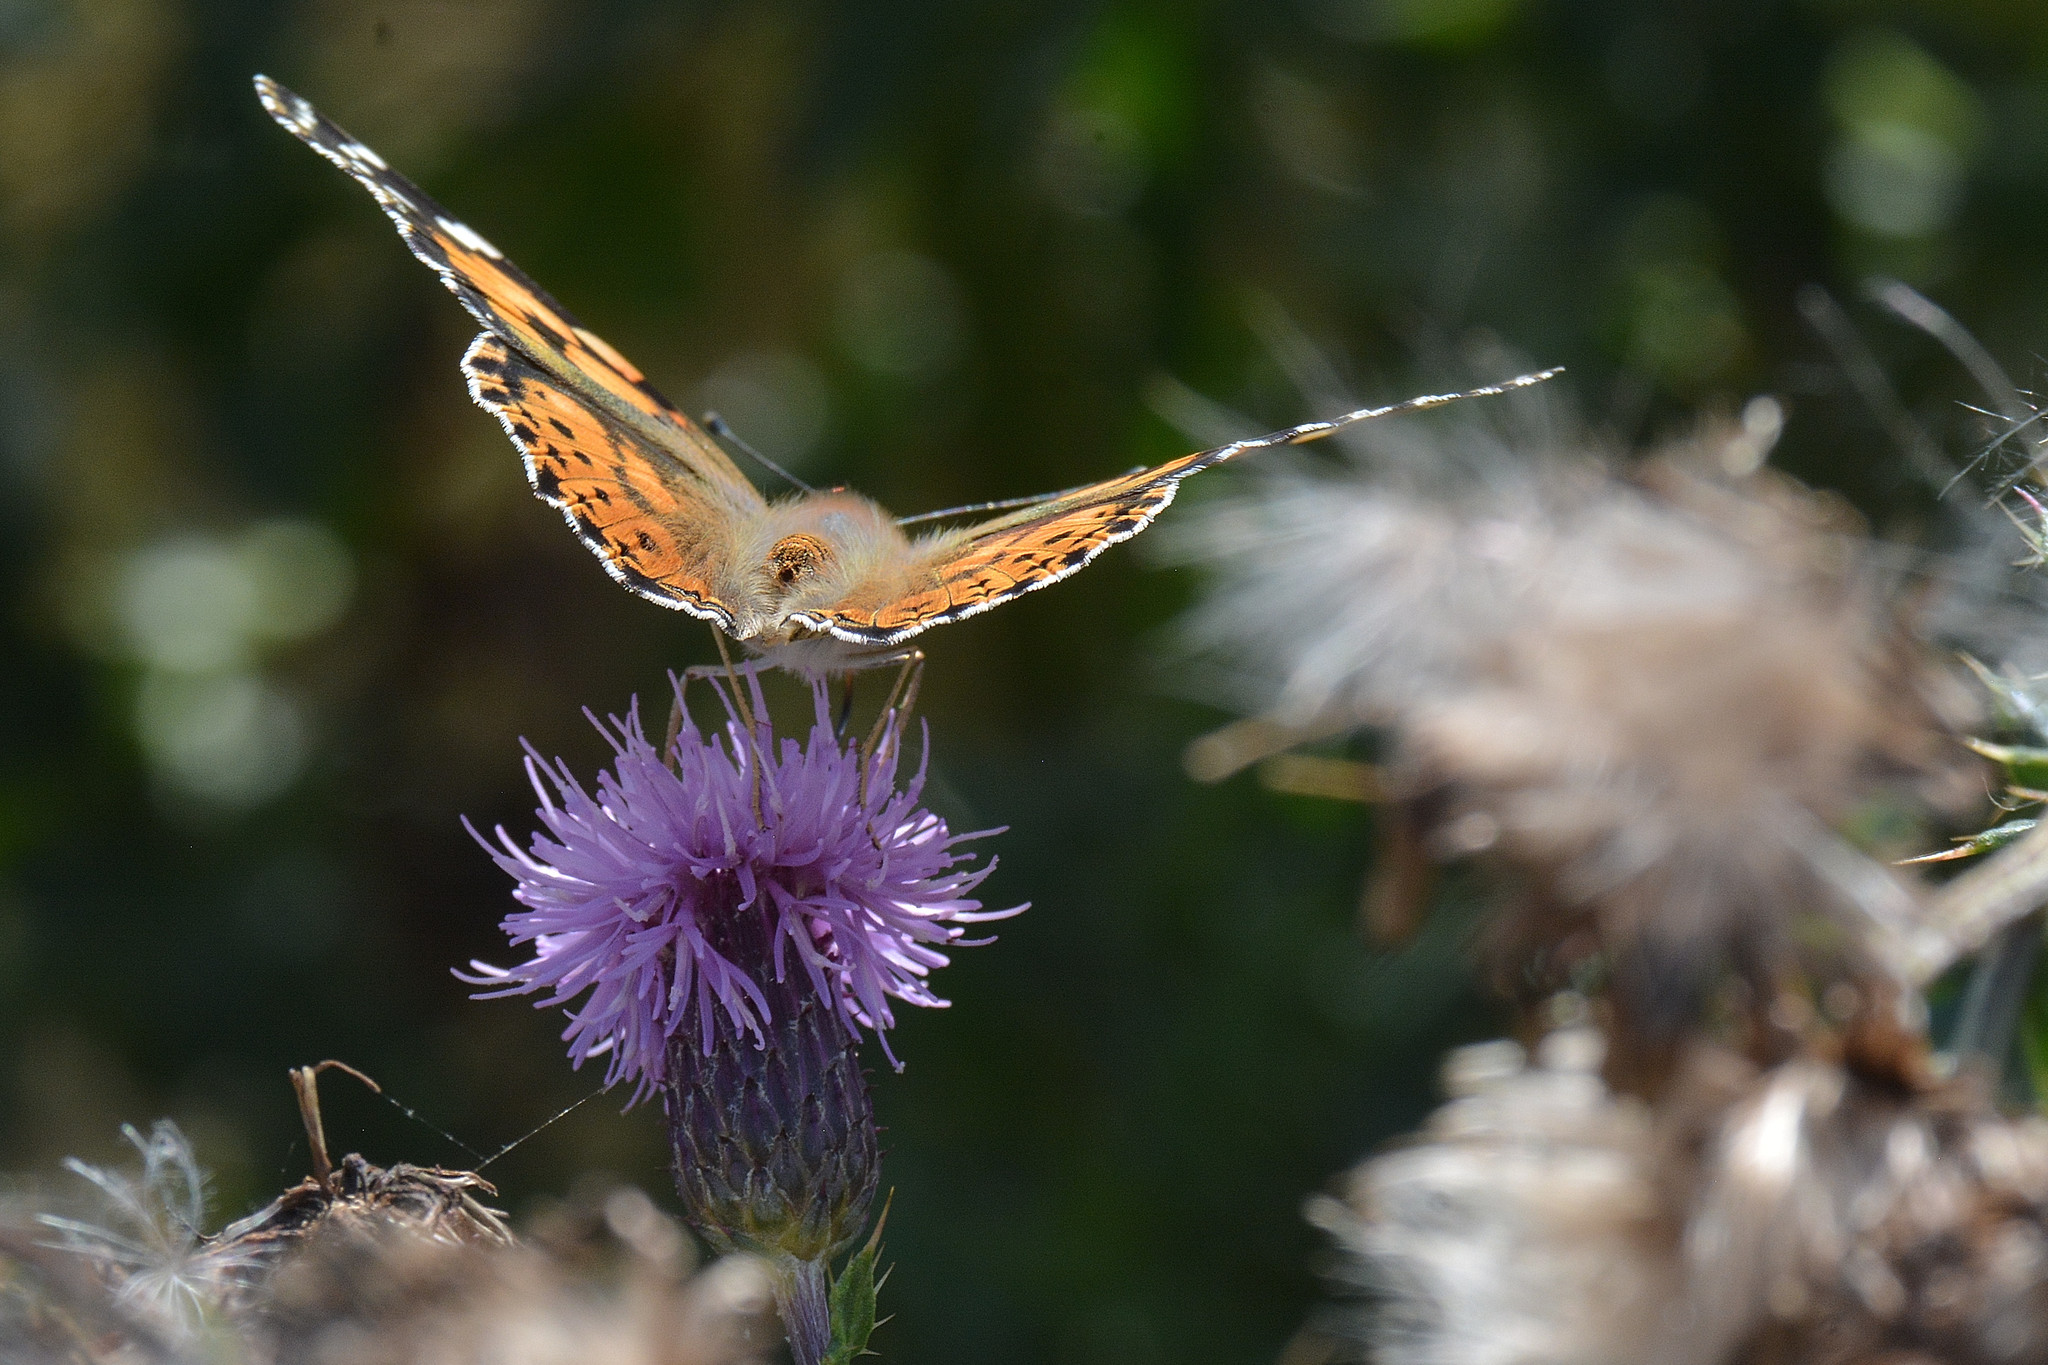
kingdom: Animalia
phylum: Arthropoda
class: Insecta
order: Lepidoptera
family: Nymphalidae
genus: Vanessa
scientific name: Vanessa cardui
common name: Painted lady
